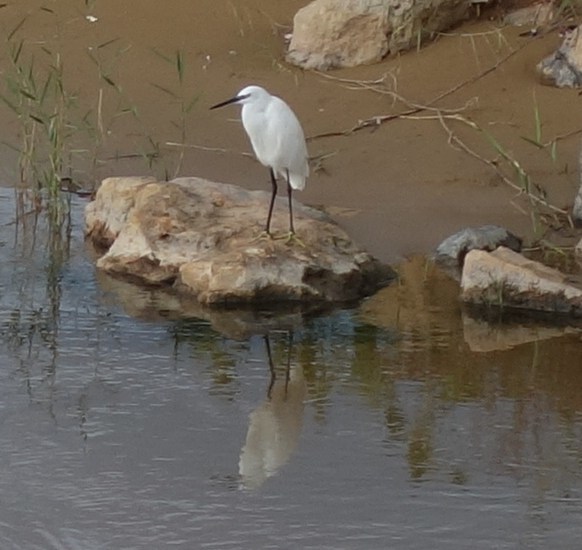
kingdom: Animalia
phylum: Chordata
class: Aves
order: Pelecaniformes
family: Ardeidae
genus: Egretta
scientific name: Egretta garzetta
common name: Little egret
